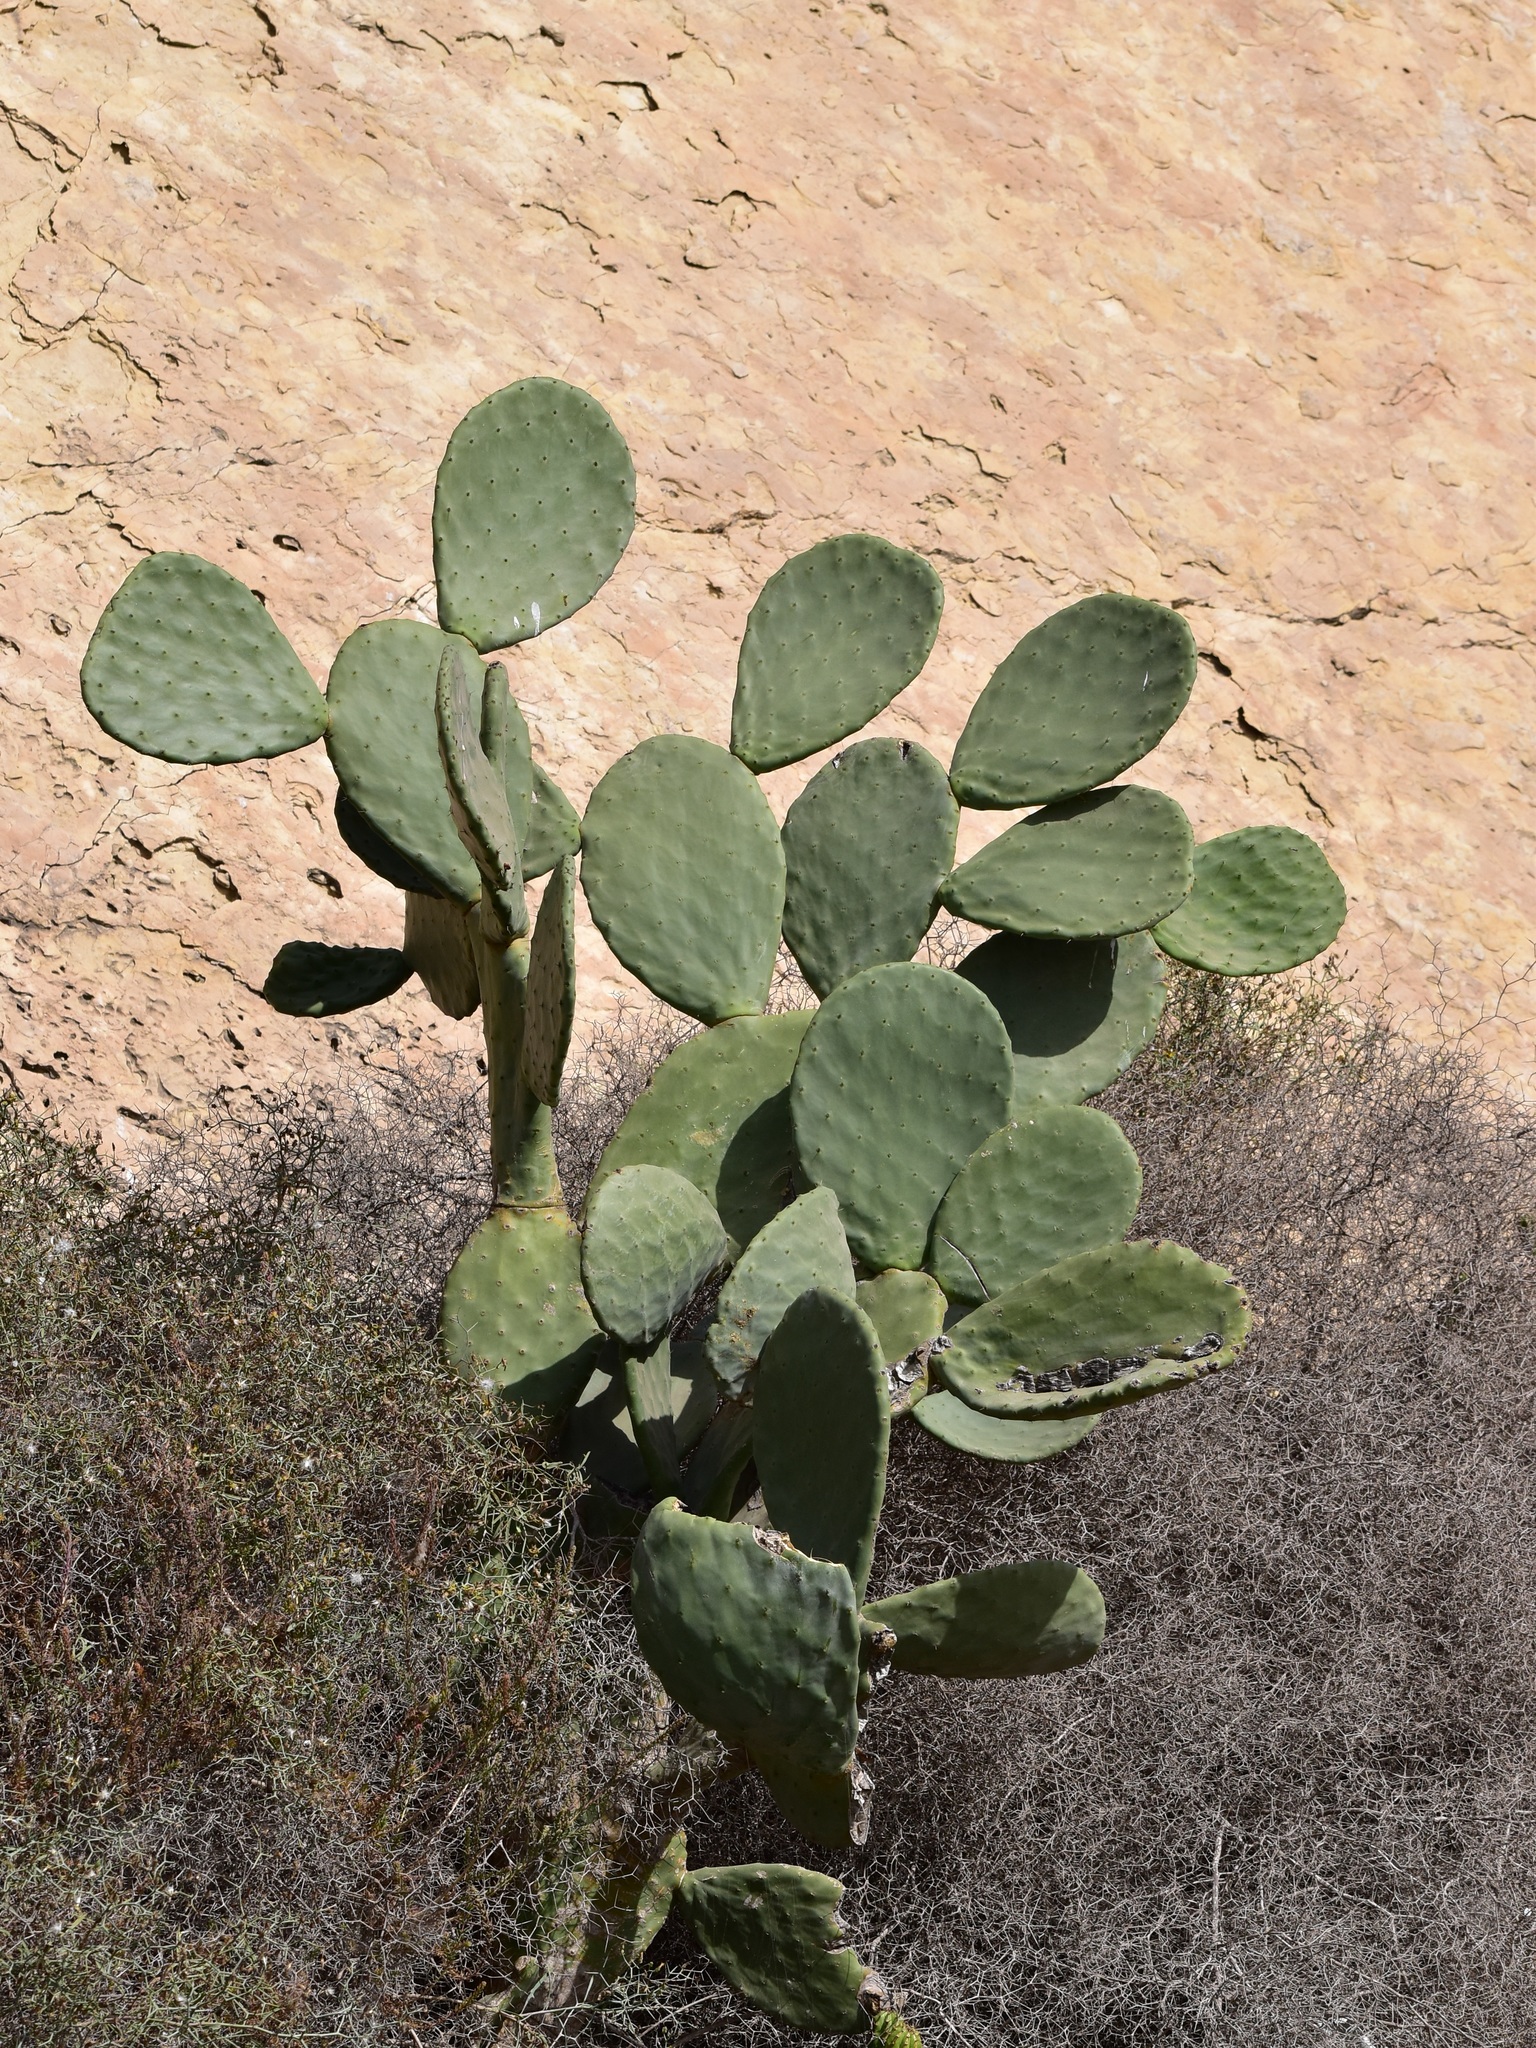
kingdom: Plantae
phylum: Tracheophyta
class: Magnoliopsida
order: Caryophyllales
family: Cactaceae
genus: Opuntia
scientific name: Opuntia ficus-indica
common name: Barbary fig
